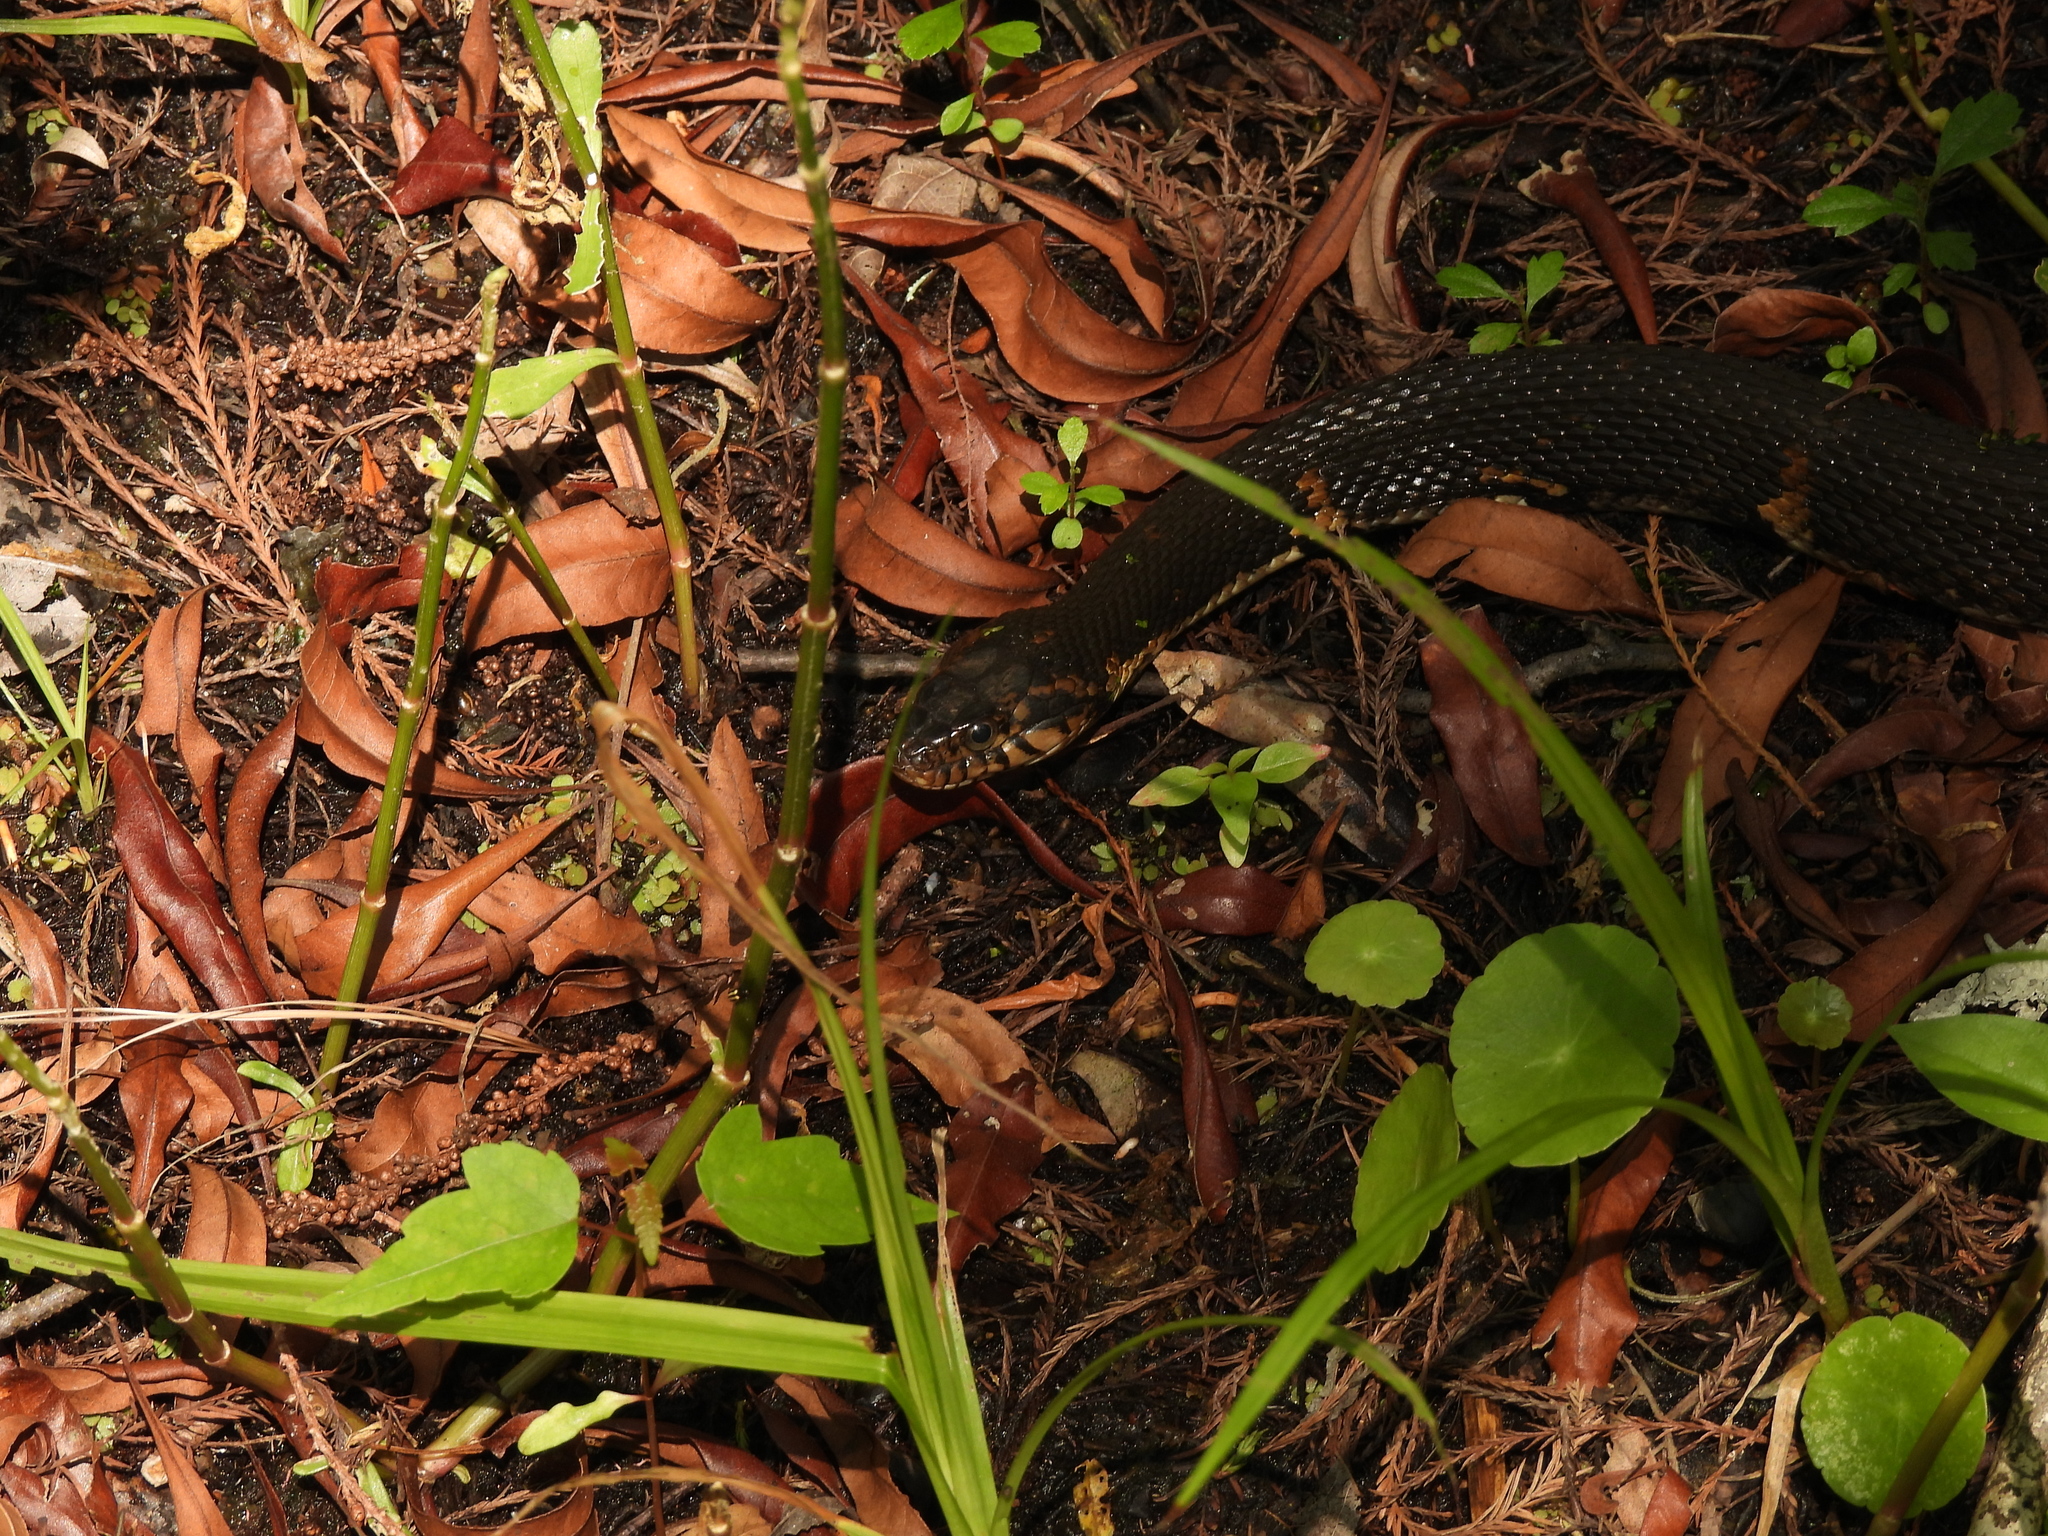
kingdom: Animalia
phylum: Chordata
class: Squamata
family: Colubridae
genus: Nerodia
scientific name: Nerodia fasciata
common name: Southern water snake
